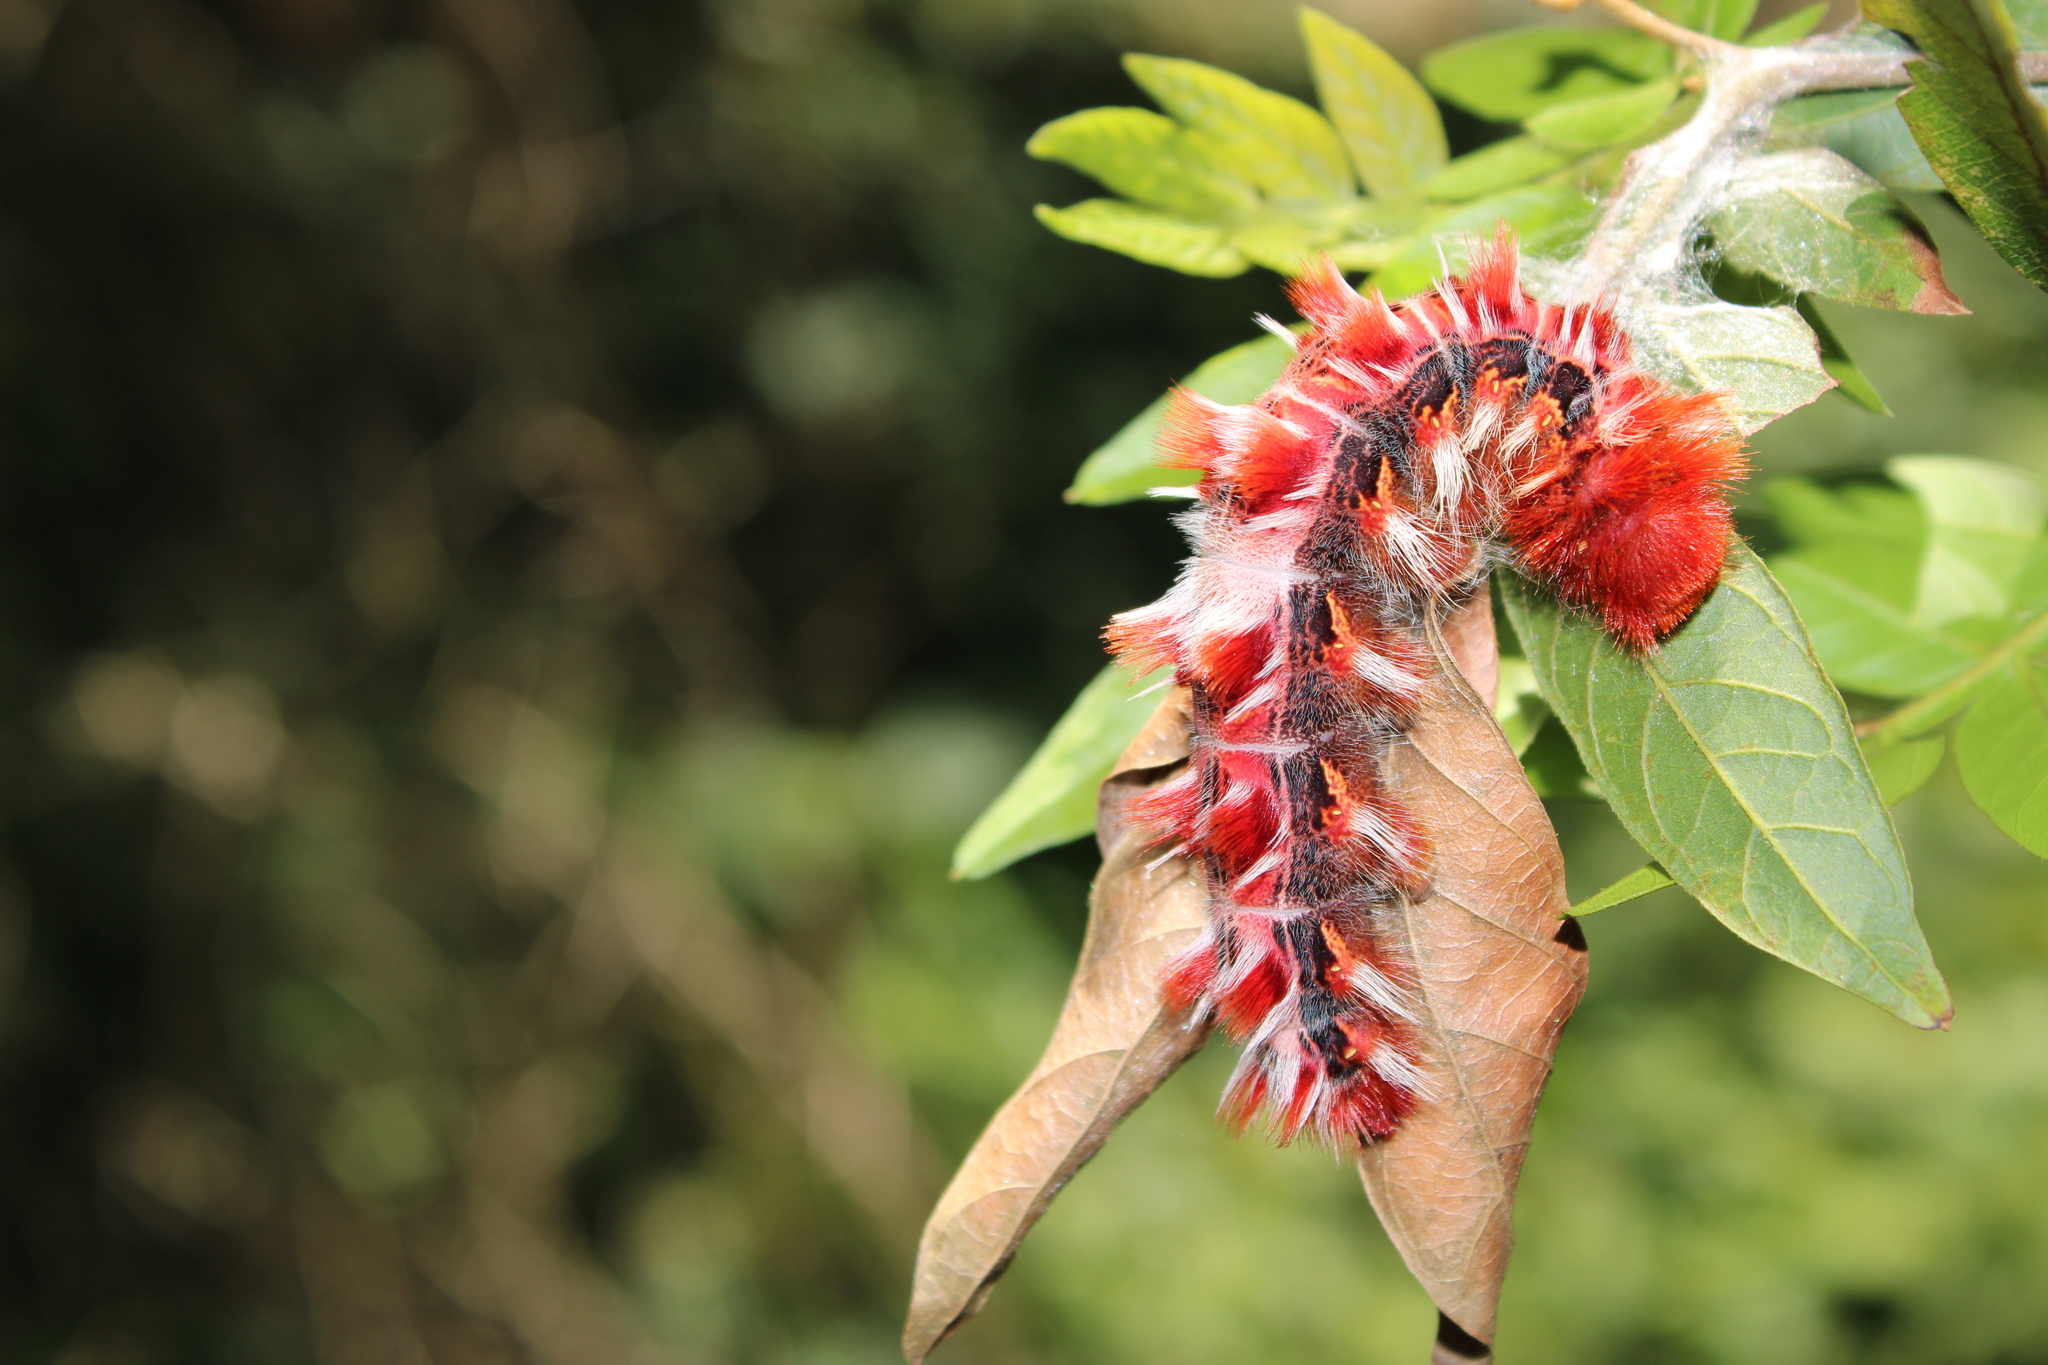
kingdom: Animalia
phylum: Arthropoda
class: Insecta
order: Lepidoptera
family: Nymphalidae
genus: Morpho
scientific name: Morpho epistrophus
